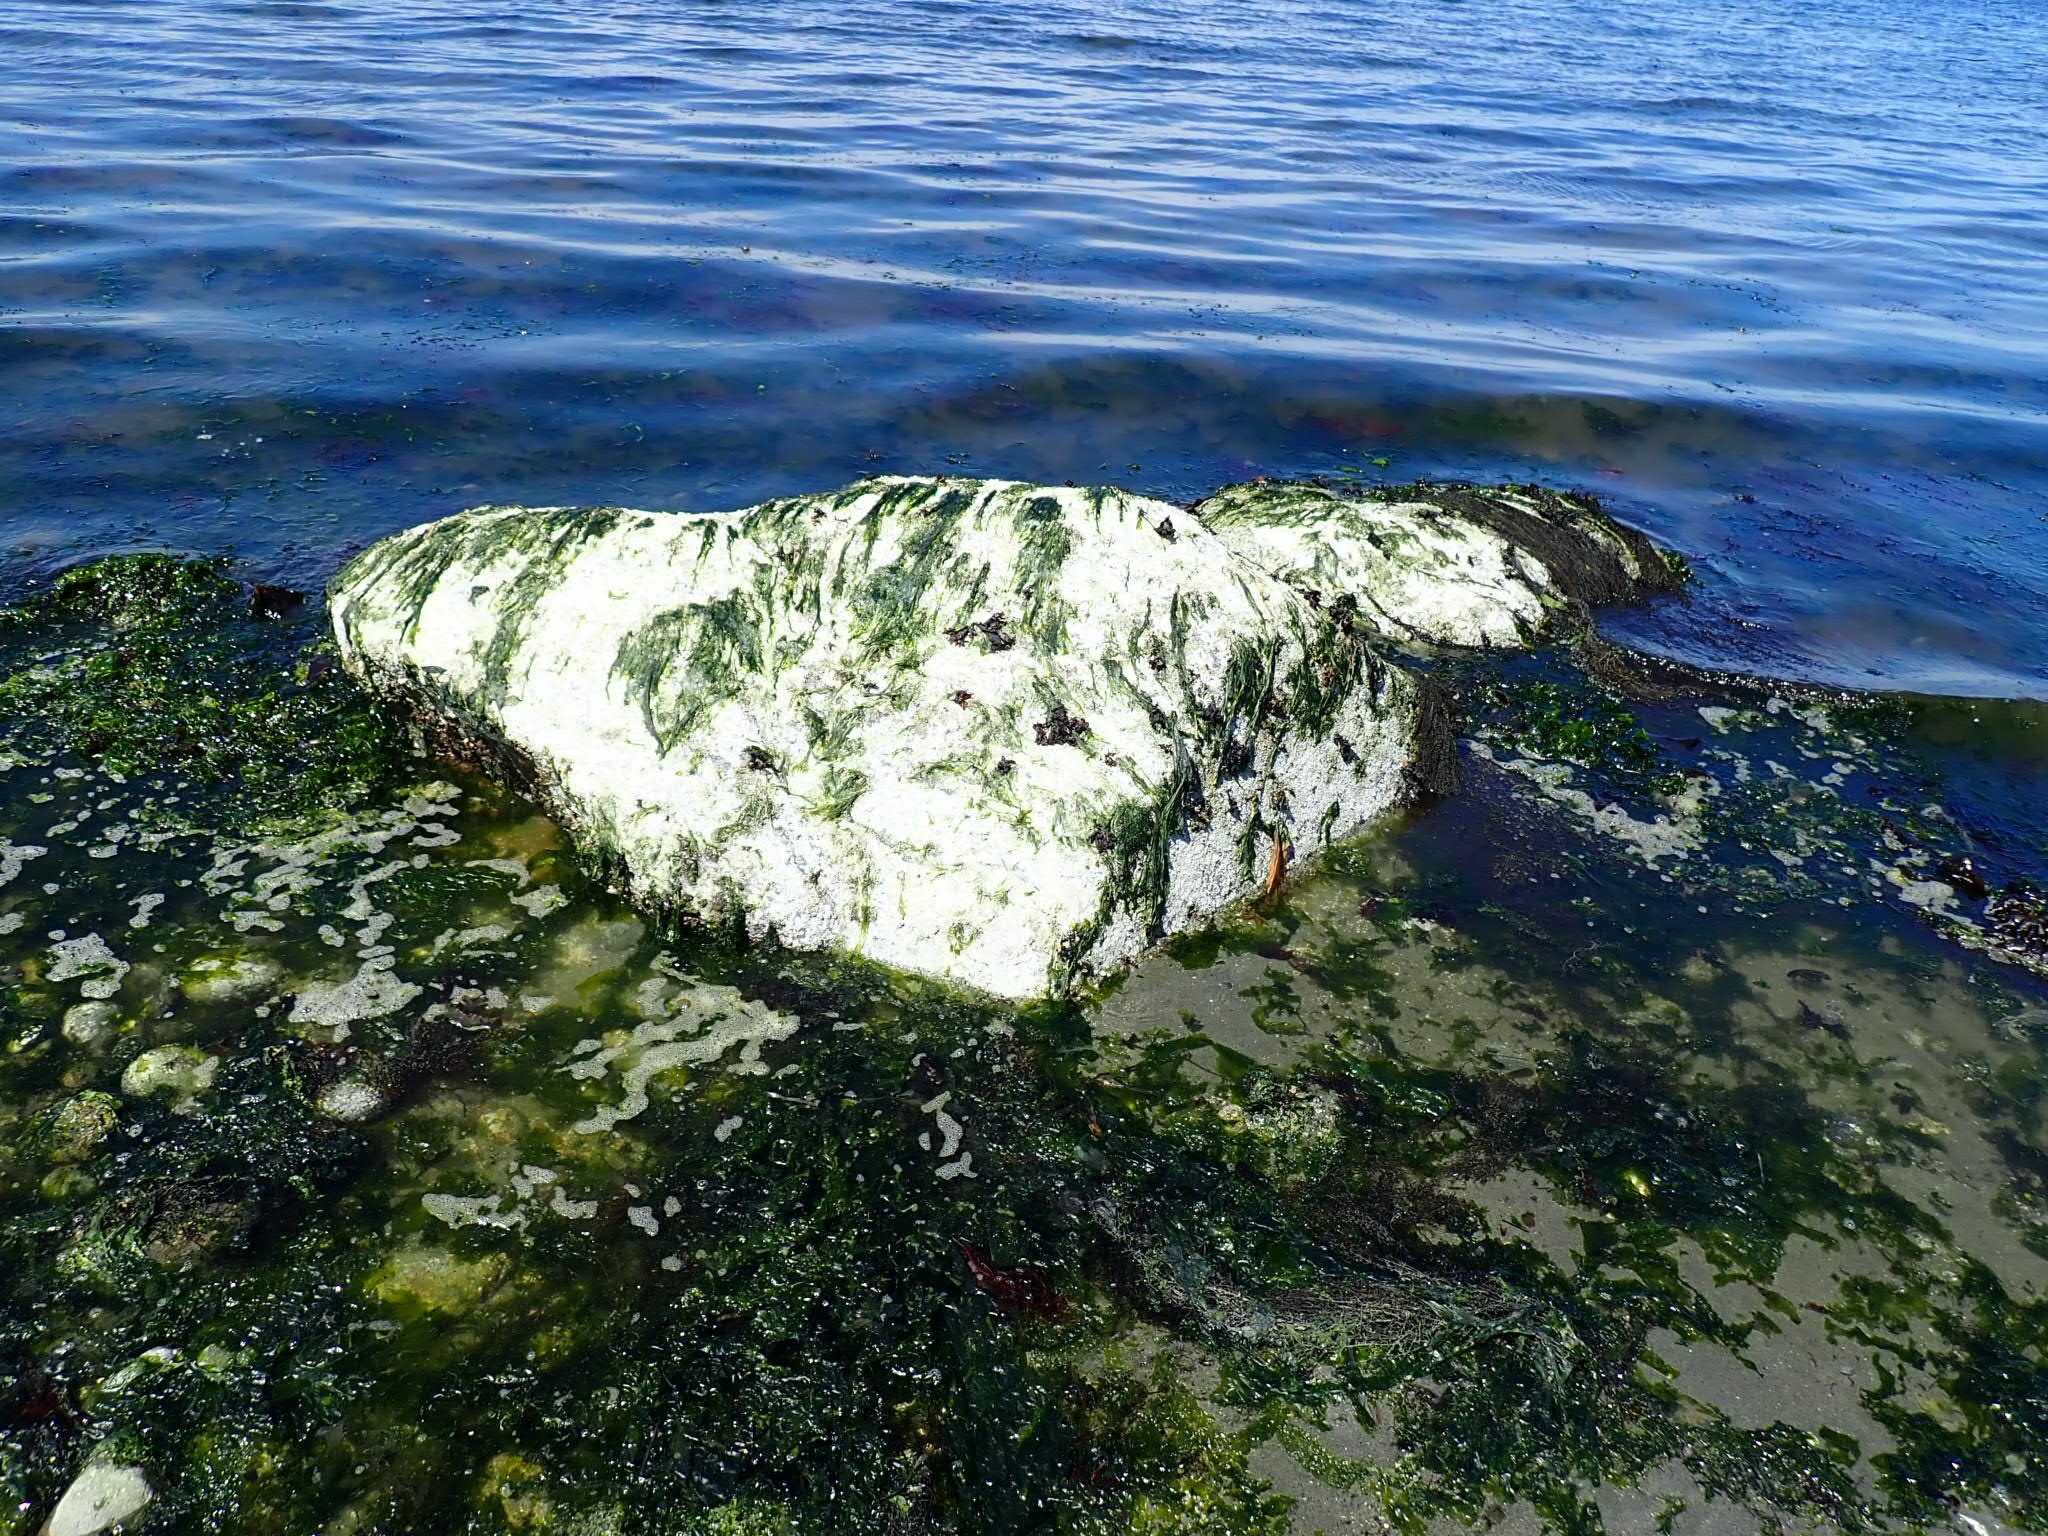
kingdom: Animalia
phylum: Arthropoda
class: Malacostraca
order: Decapoda
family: Epialtidae
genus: Pugettia
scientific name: Pugettia gracilis
